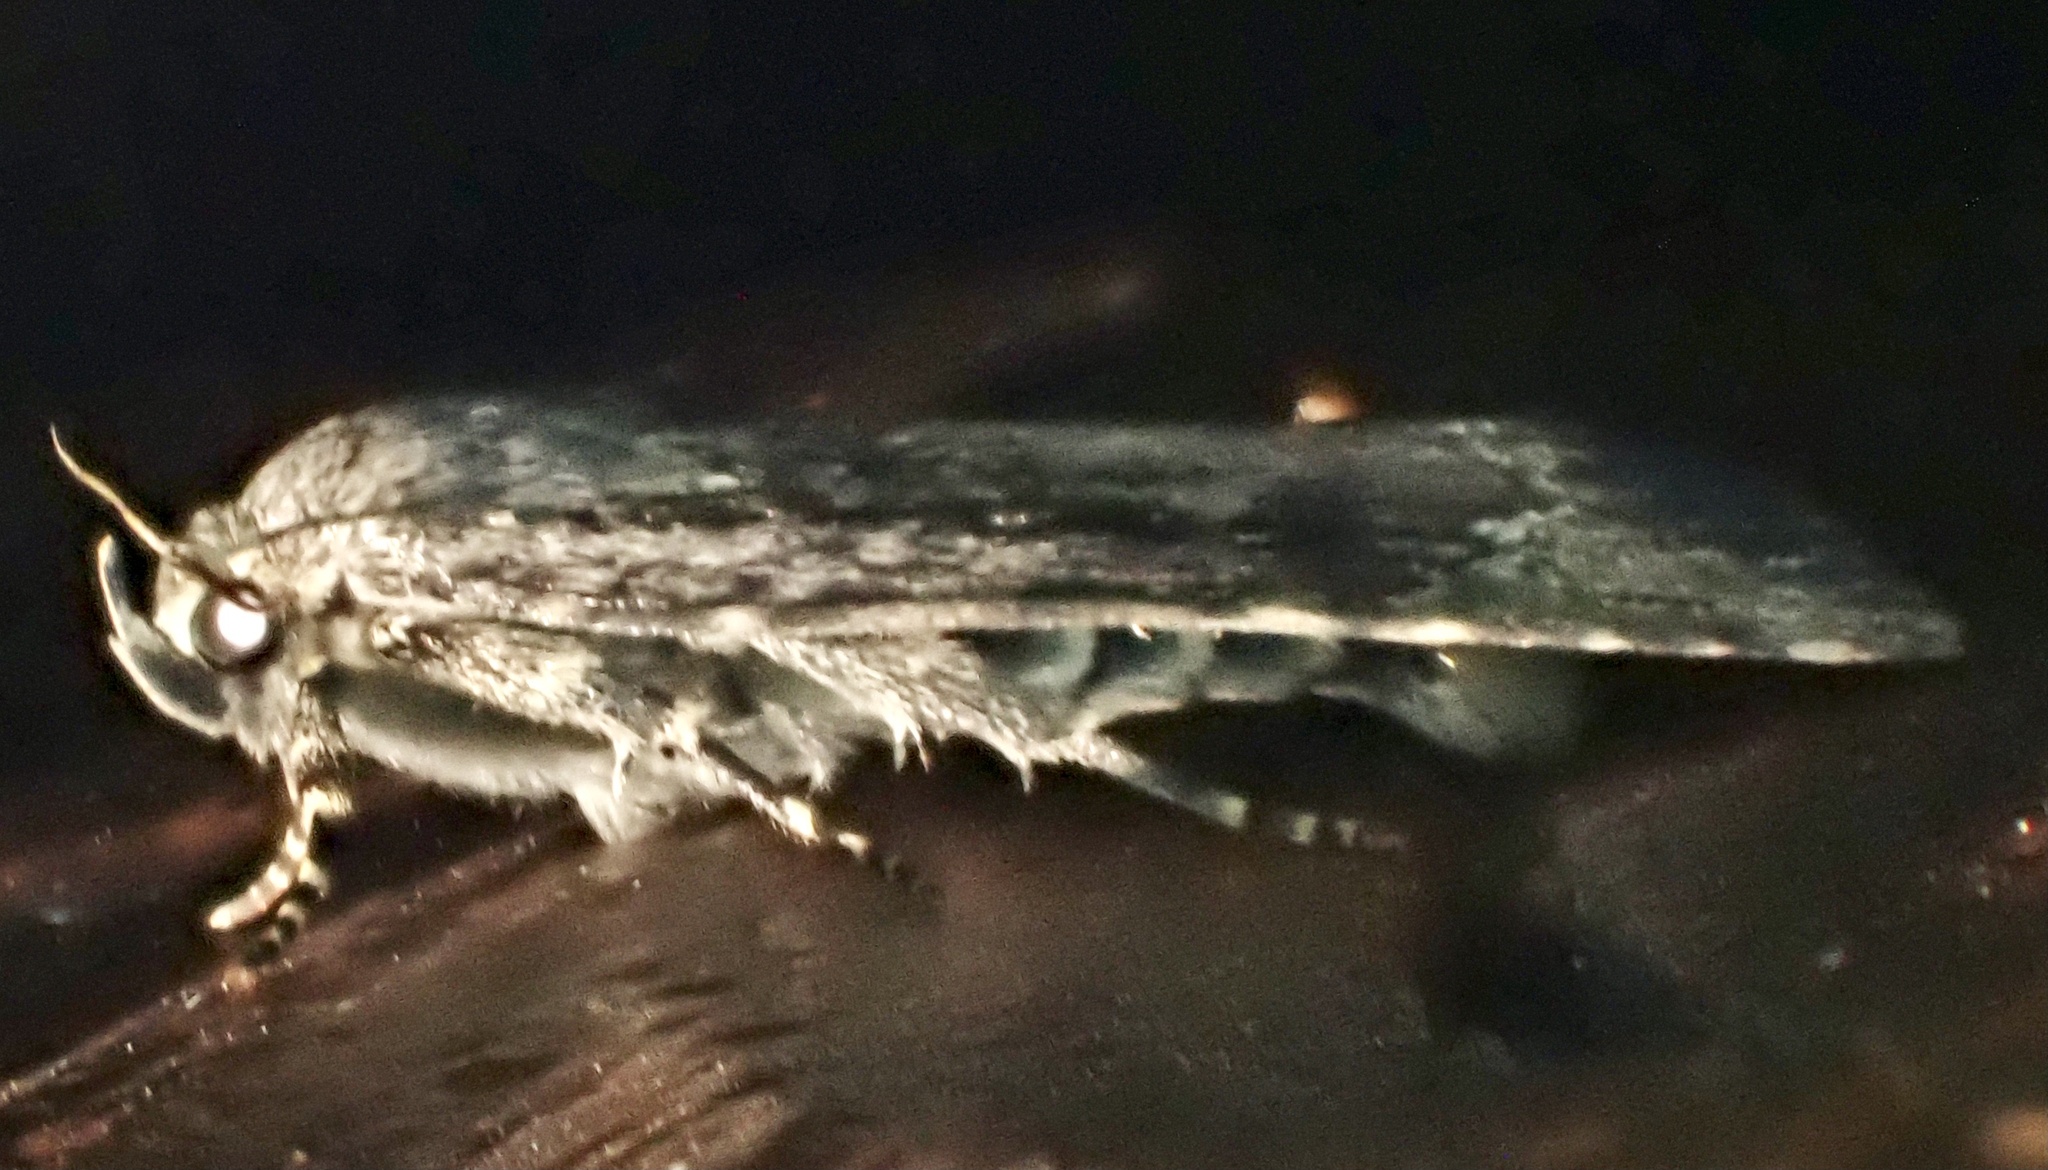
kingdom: Animalia
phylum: Arthropoda
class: Insecta
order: Lepidoptera
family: Noctuidae
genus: Amphipyra
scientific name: Amphipyra pyramidoides
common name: American copper underwing
